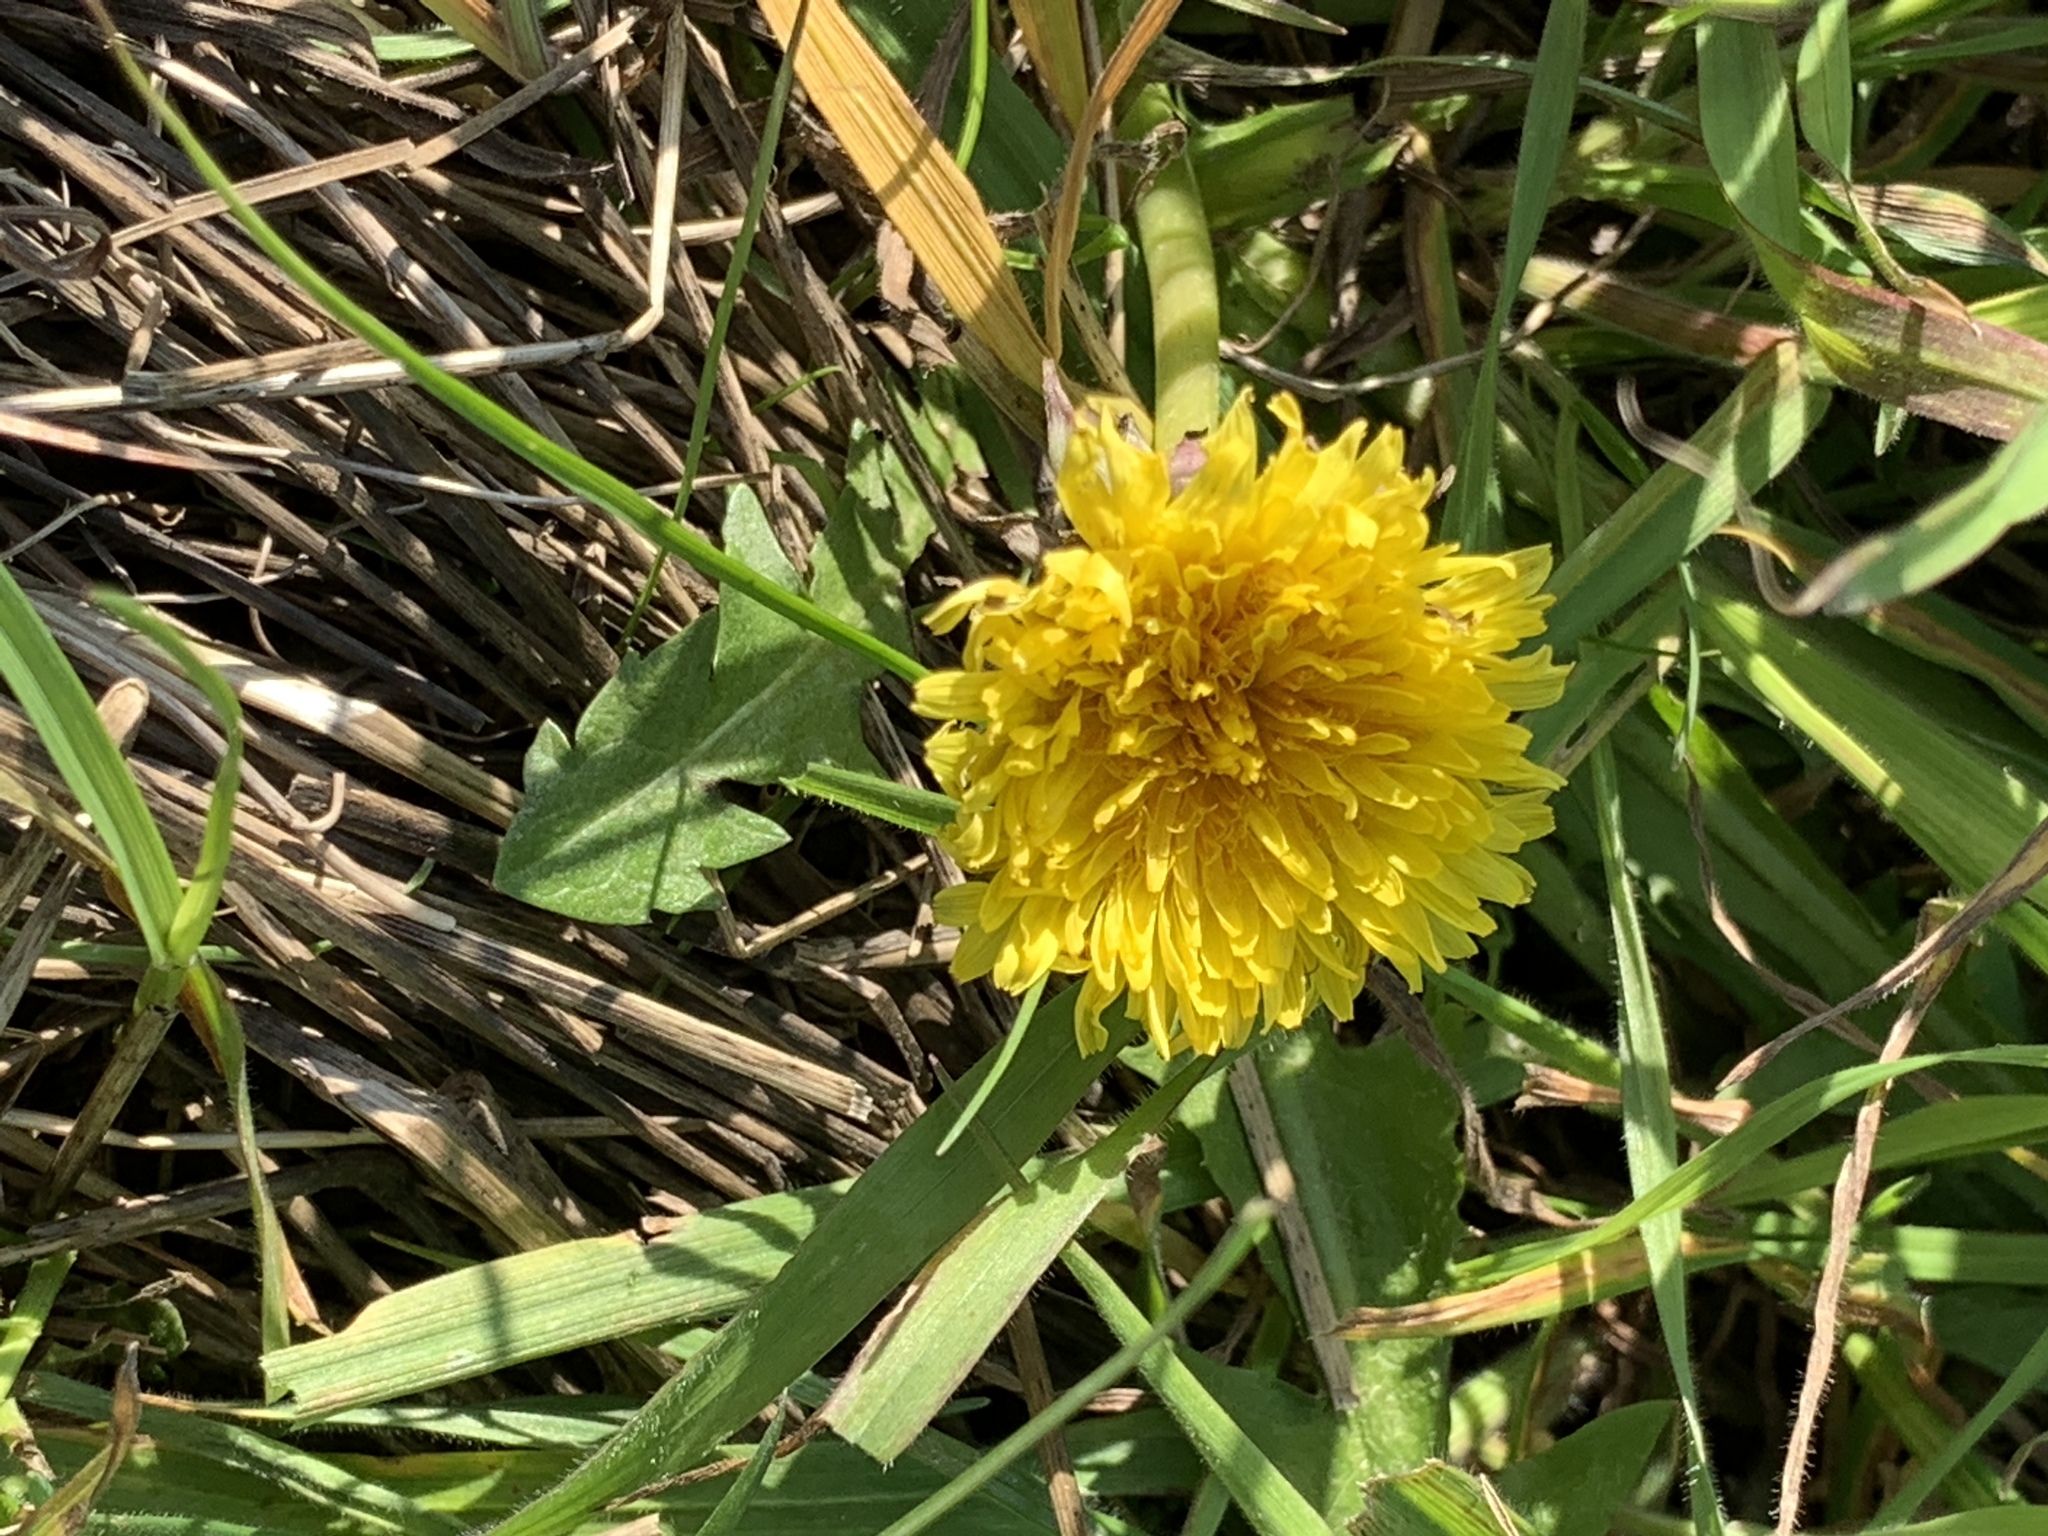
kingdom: Plantae
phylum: Tracheophyta
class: Magnoliopsida
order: Asterales
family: Asteraceae
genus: Taraxacum
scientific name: Taraxacum officinale
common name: Common dandelion
